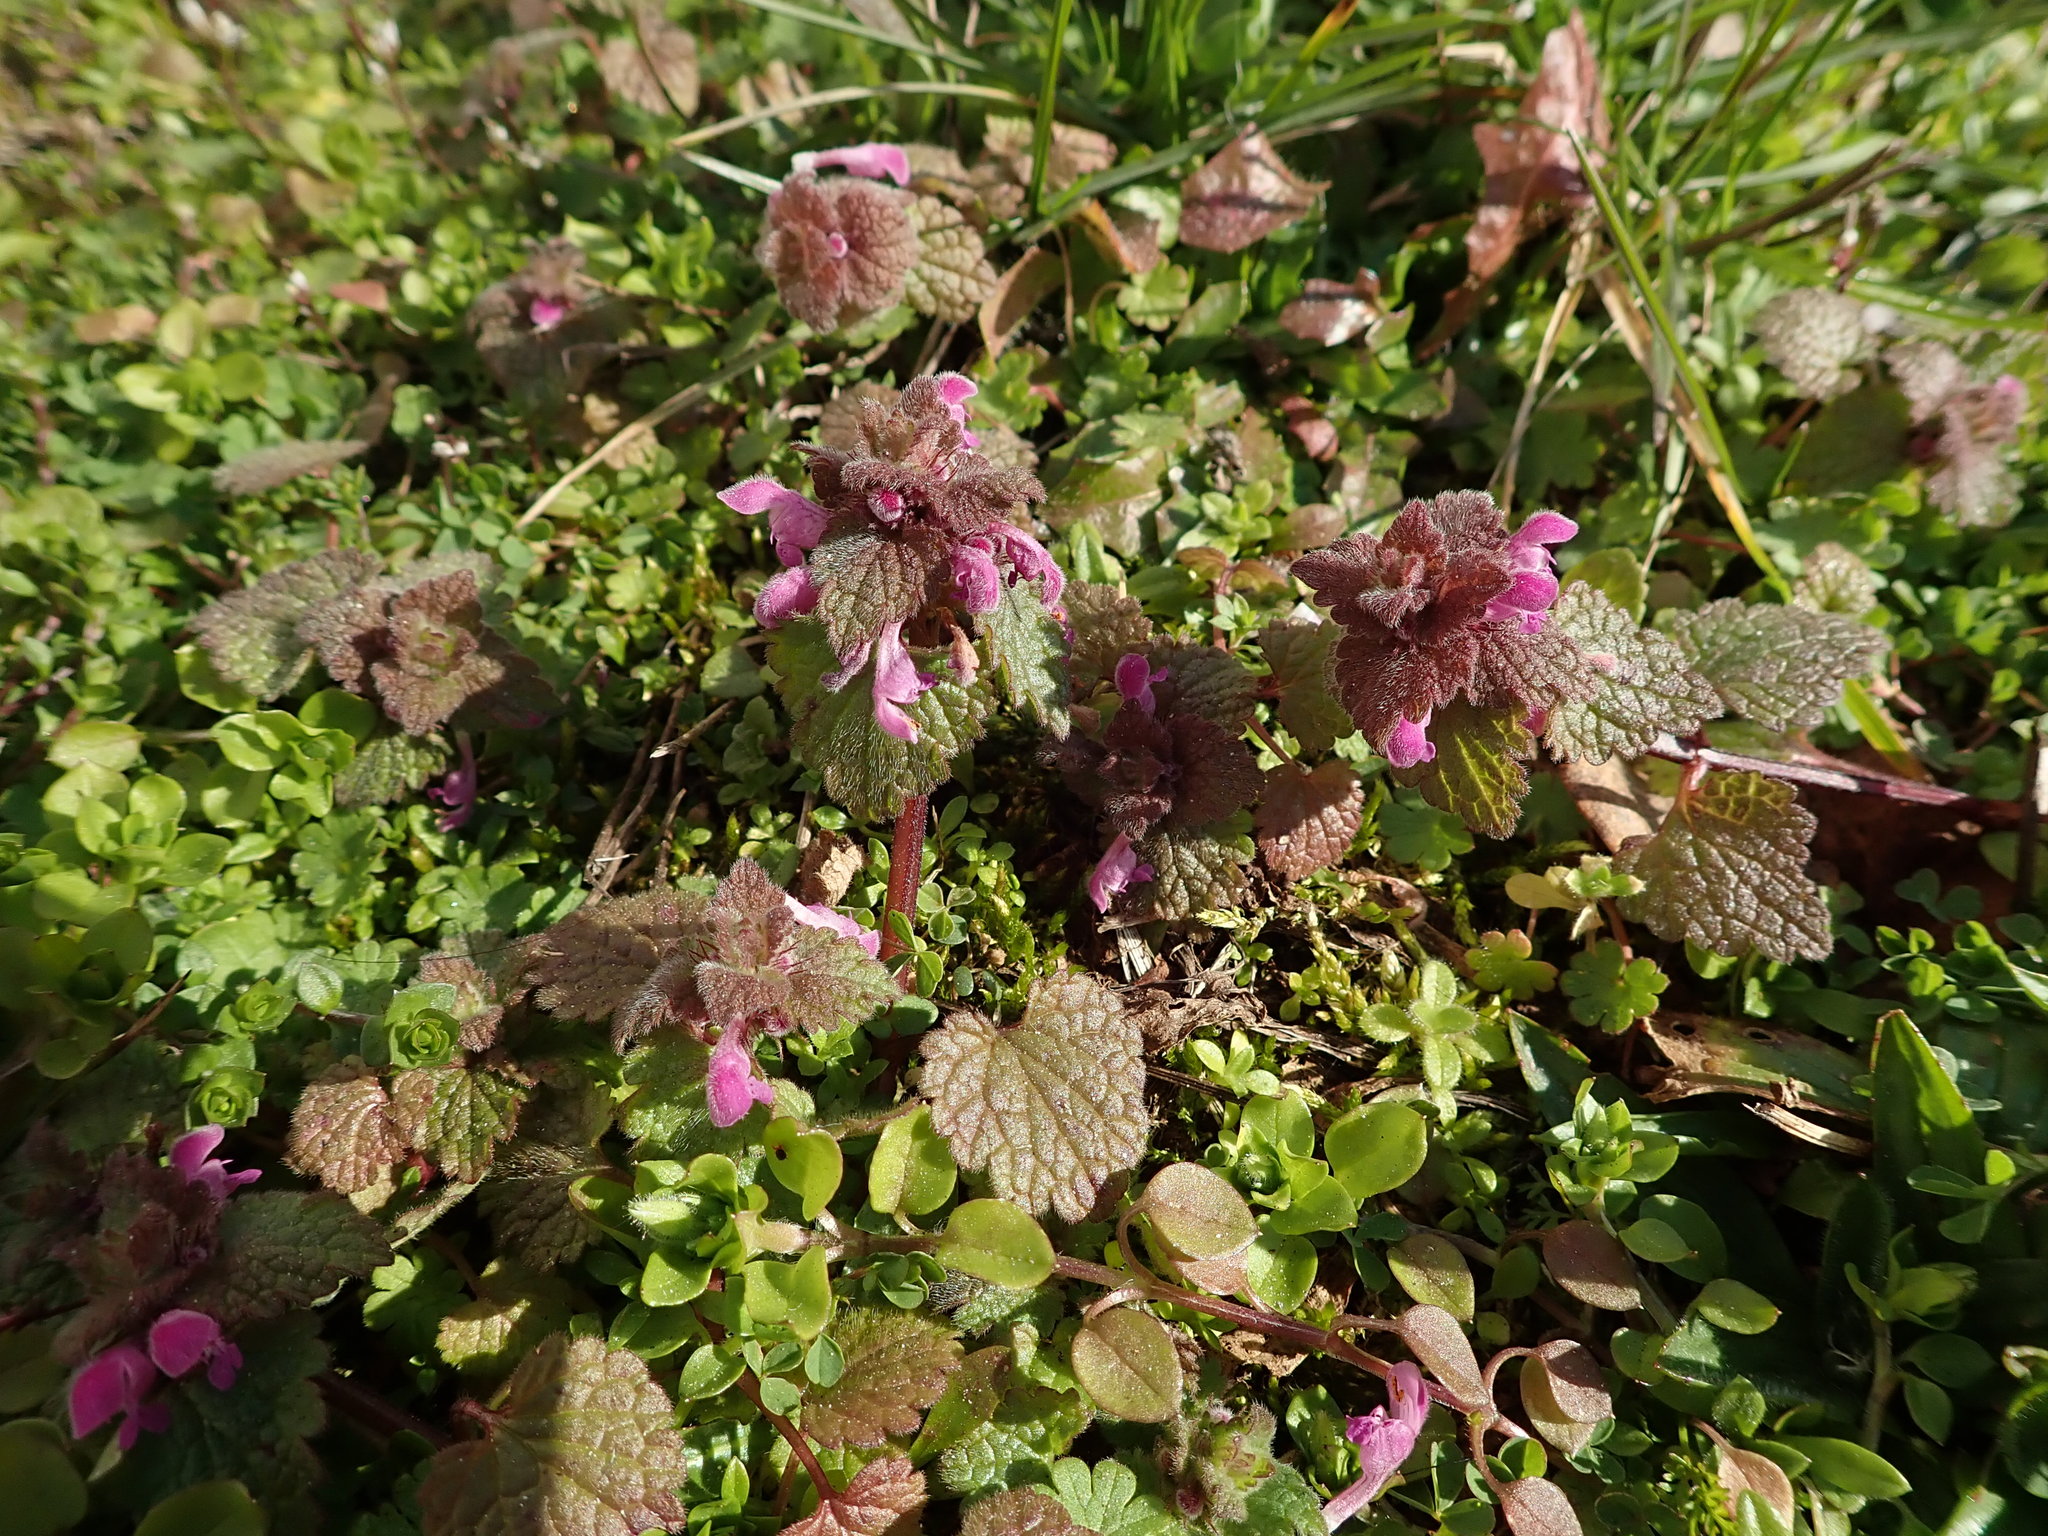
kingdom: Plantae
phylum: Tracheophyta
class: Magnoliopsida
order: Lamiales
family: Lamiaceae
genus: Lamium
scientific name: Lamium purpureum
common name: Red dead-nettle
